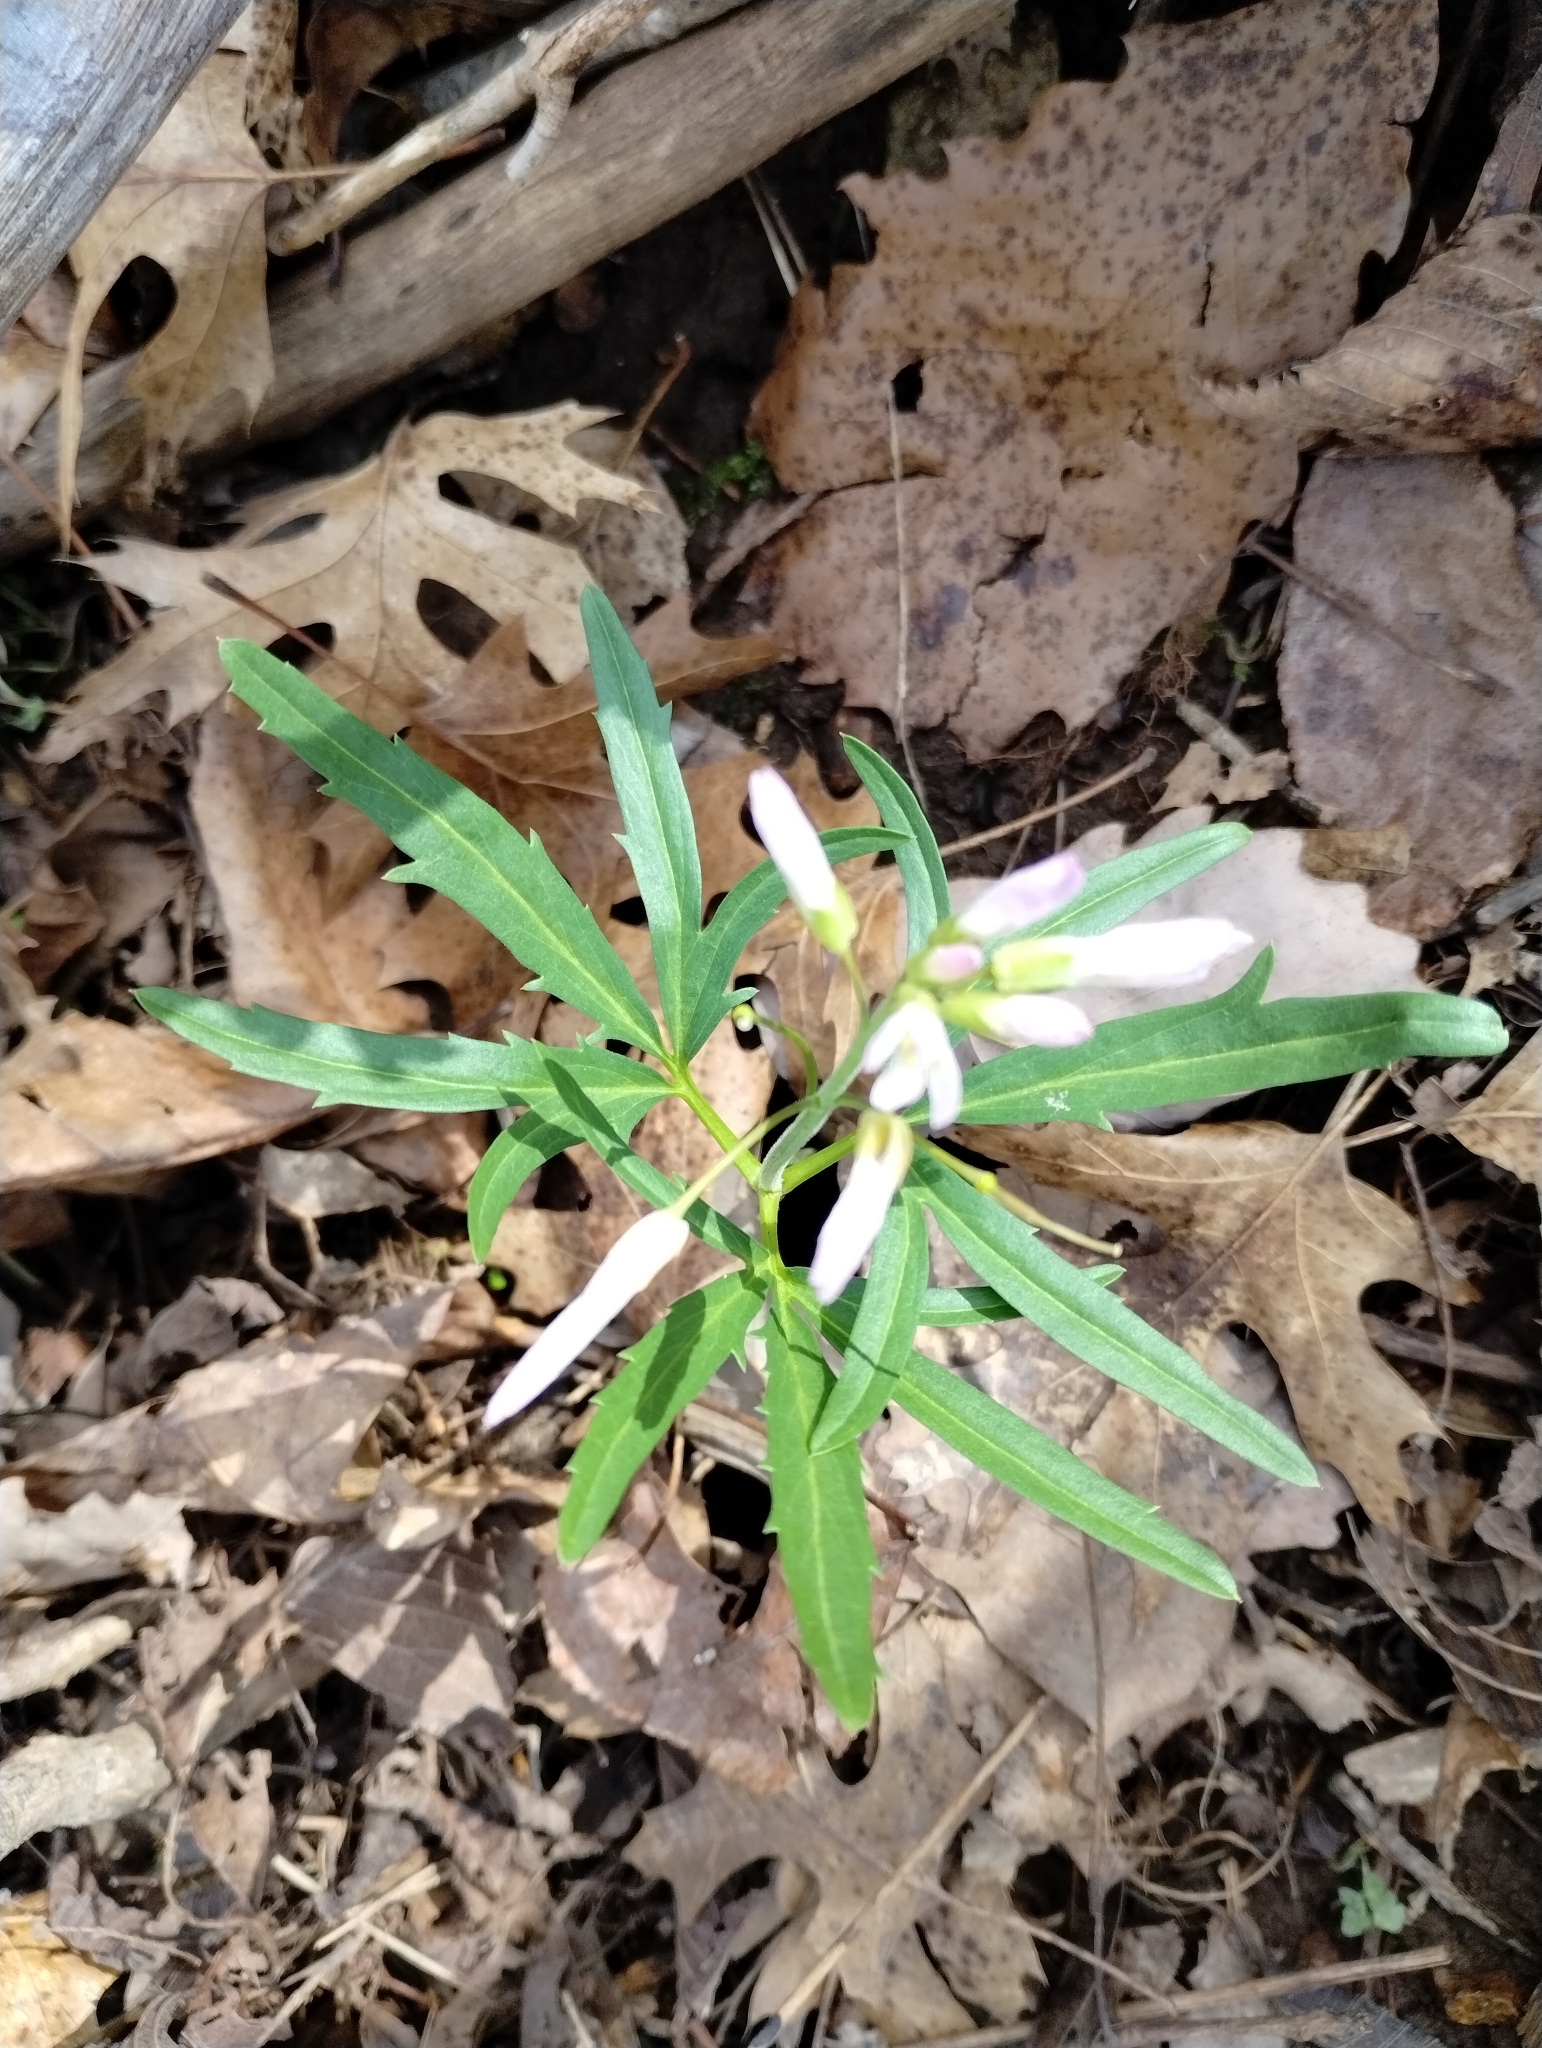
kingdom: Plantae
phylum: Tracheophyta
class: Magnoliopsida
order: Brassicales
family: Brassicaceae
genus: Cardamine
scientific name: Cardamine concatenata
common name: Cut-leaf toothcup
